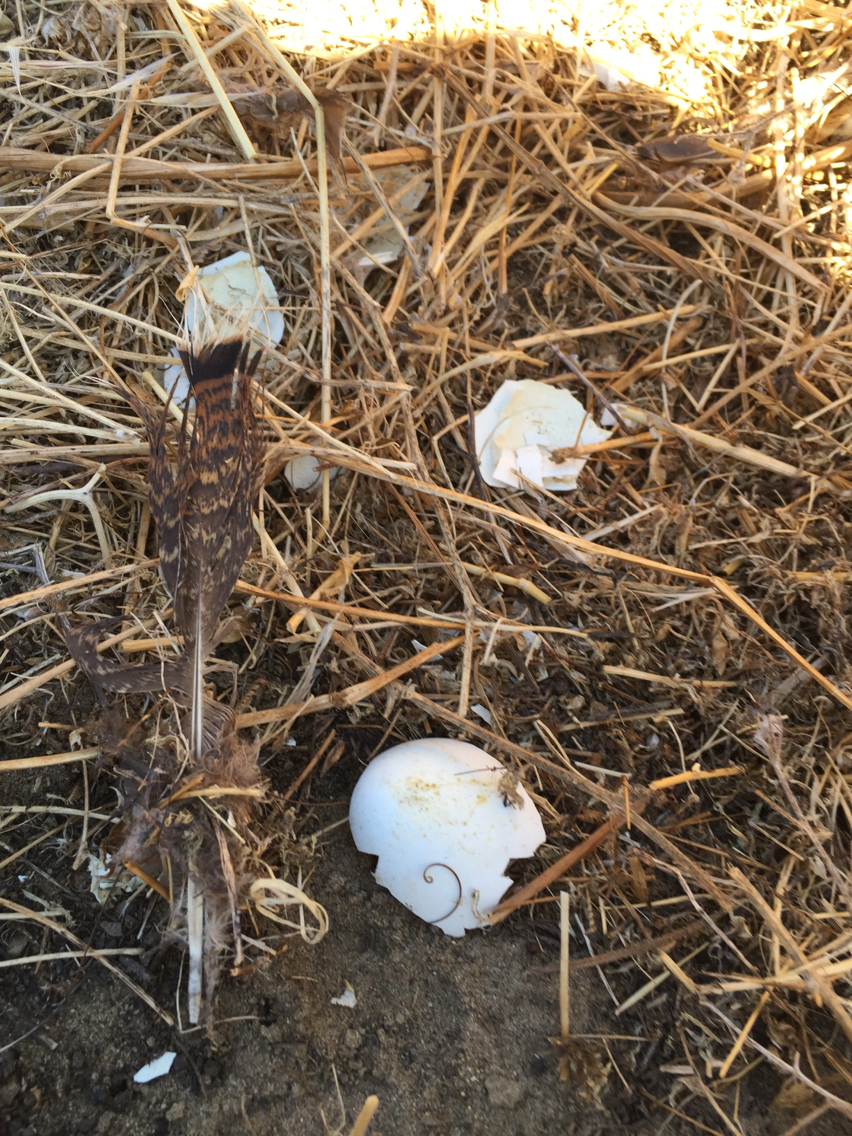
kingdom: Animalia
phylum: Chordata
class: Aves
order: Galliformes
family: Phasianidae
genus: Meleagris
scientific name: Meleagris gallopavo
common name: Wild turkey
